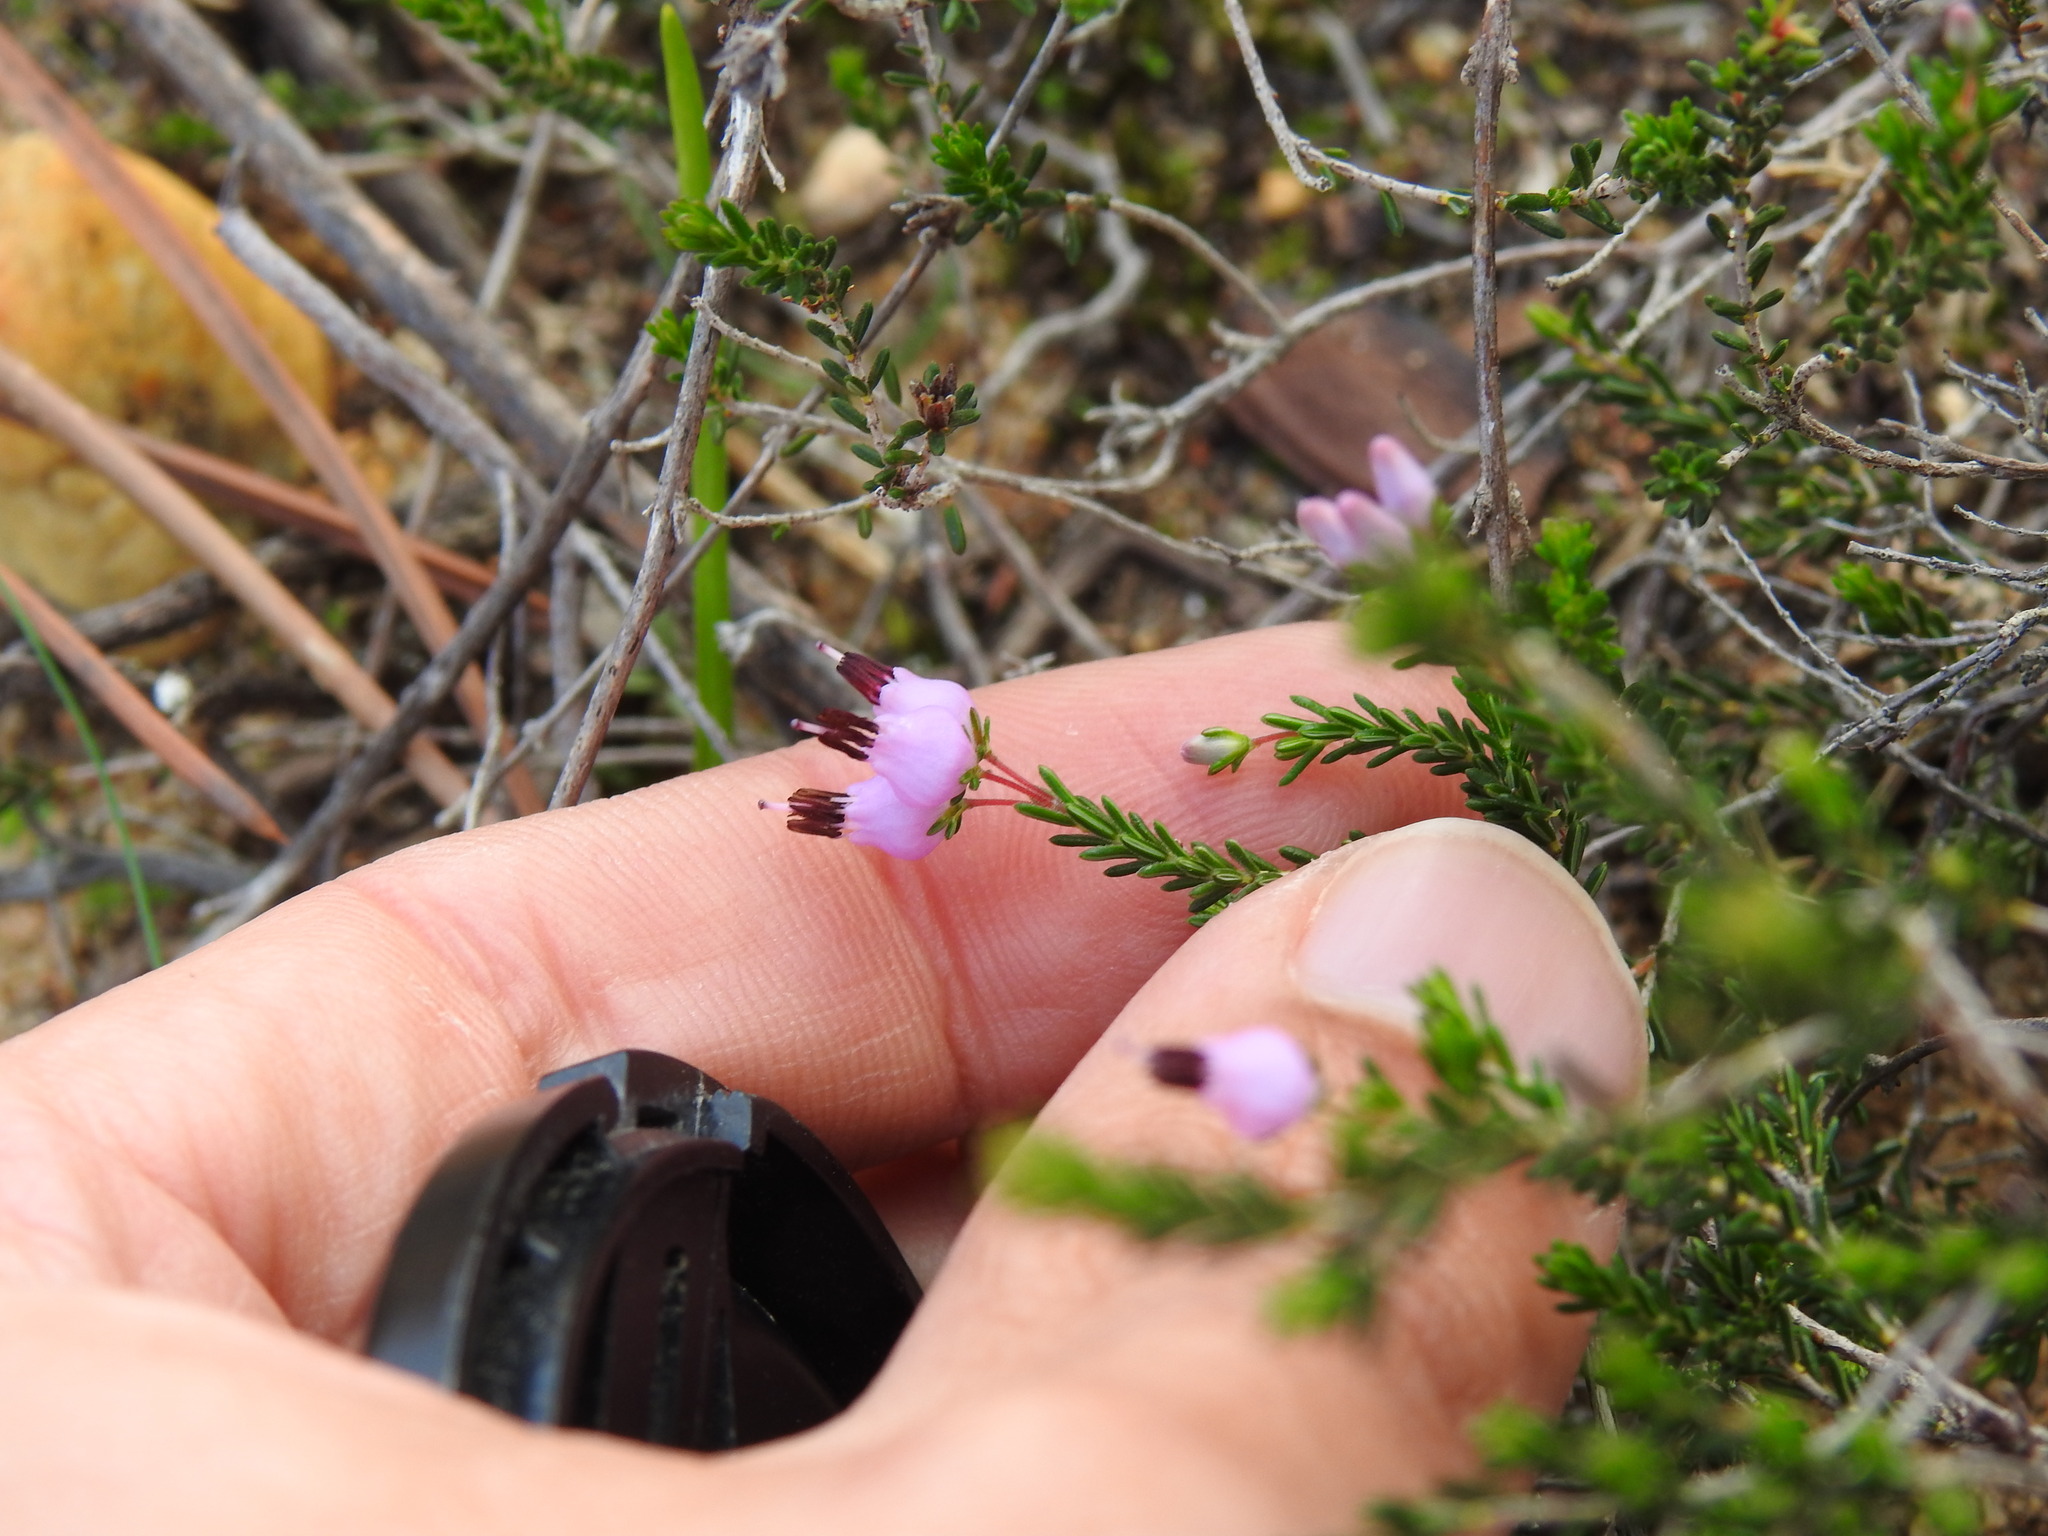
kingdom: Plantae
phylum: Tracheophyta
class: Magnoliopsida
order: Ericales
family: Ericaceae
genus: Erica
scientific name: Erica umbellata
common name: Dwarf spanish heath
